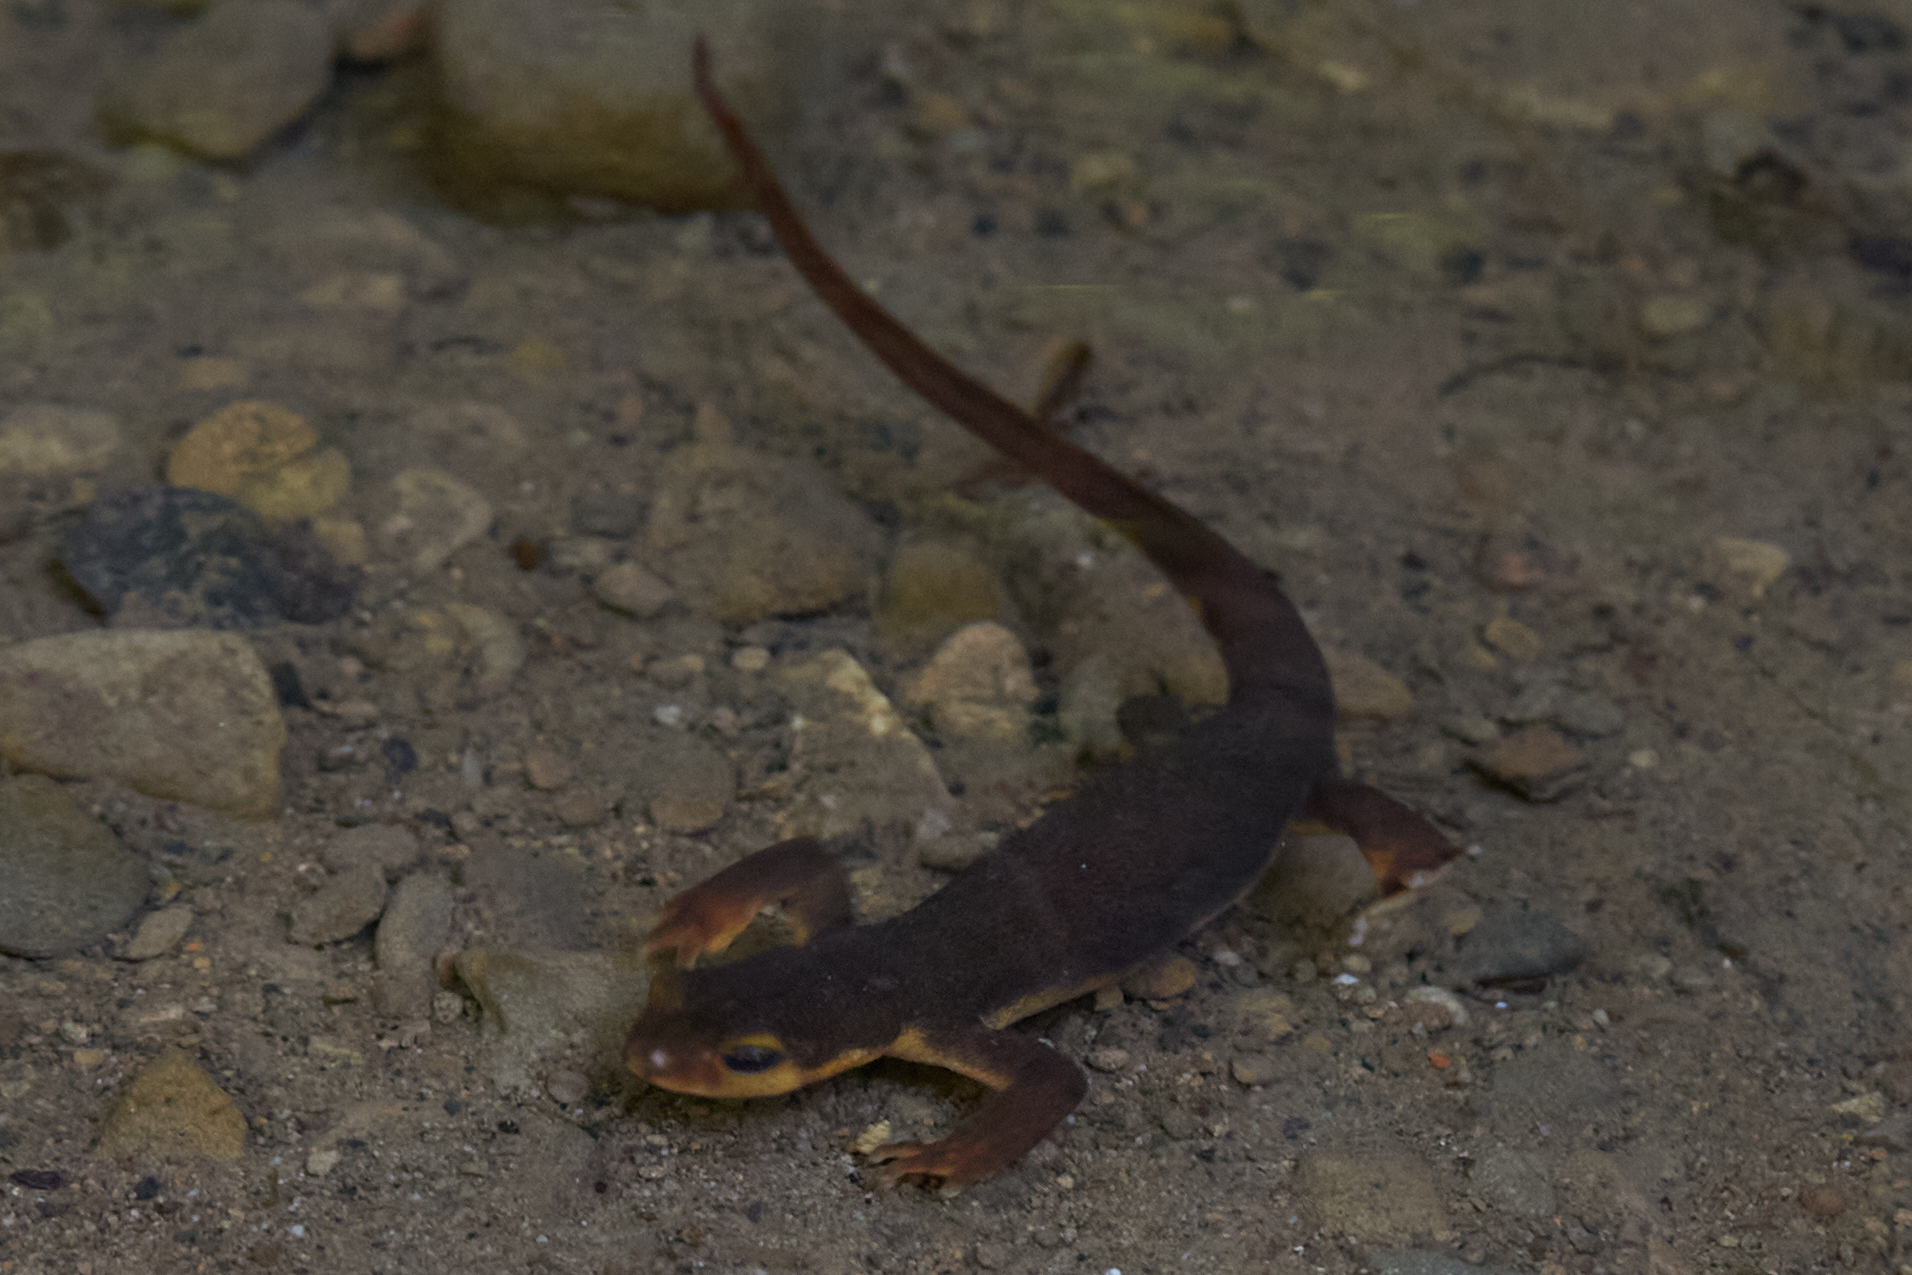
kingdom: Animalia
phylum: Chordata
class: Amphibia
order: Caudata
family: Salamandridae
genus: Taricha
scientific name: Taricha torosa
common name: California newt
